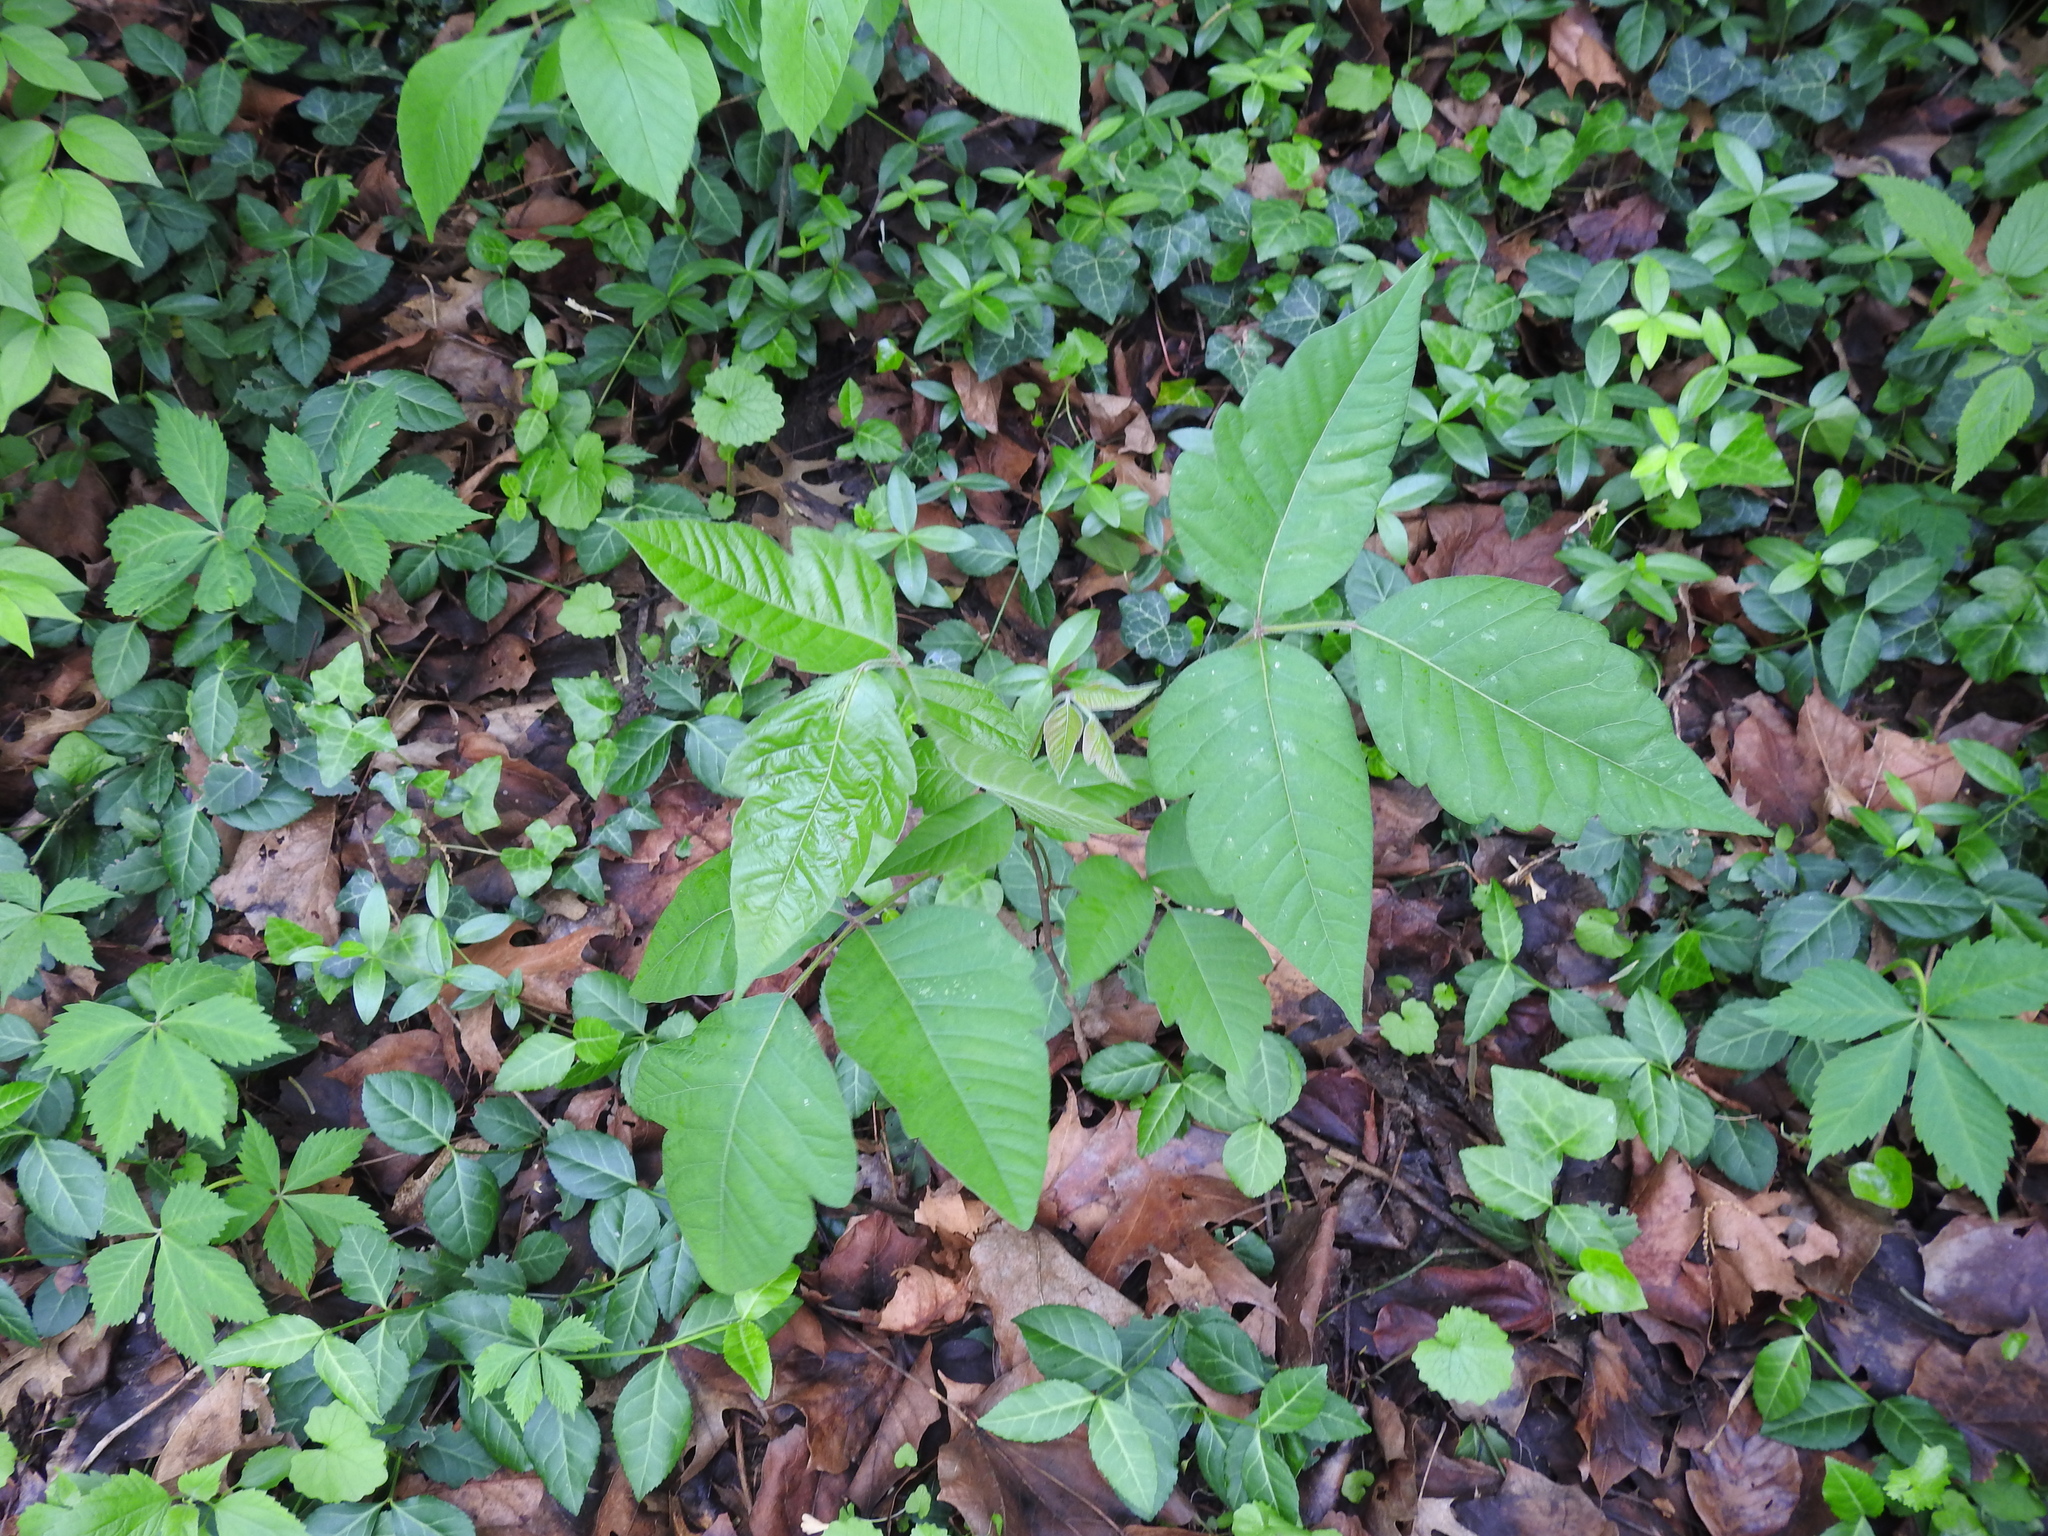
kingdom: Plantae
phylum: Tracheophyta
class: Magnoliopsida
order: Sapindales
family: Anacardiaceae
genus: Toxicodendron
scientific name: Toxicodendron radicans
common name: Poison ivy
